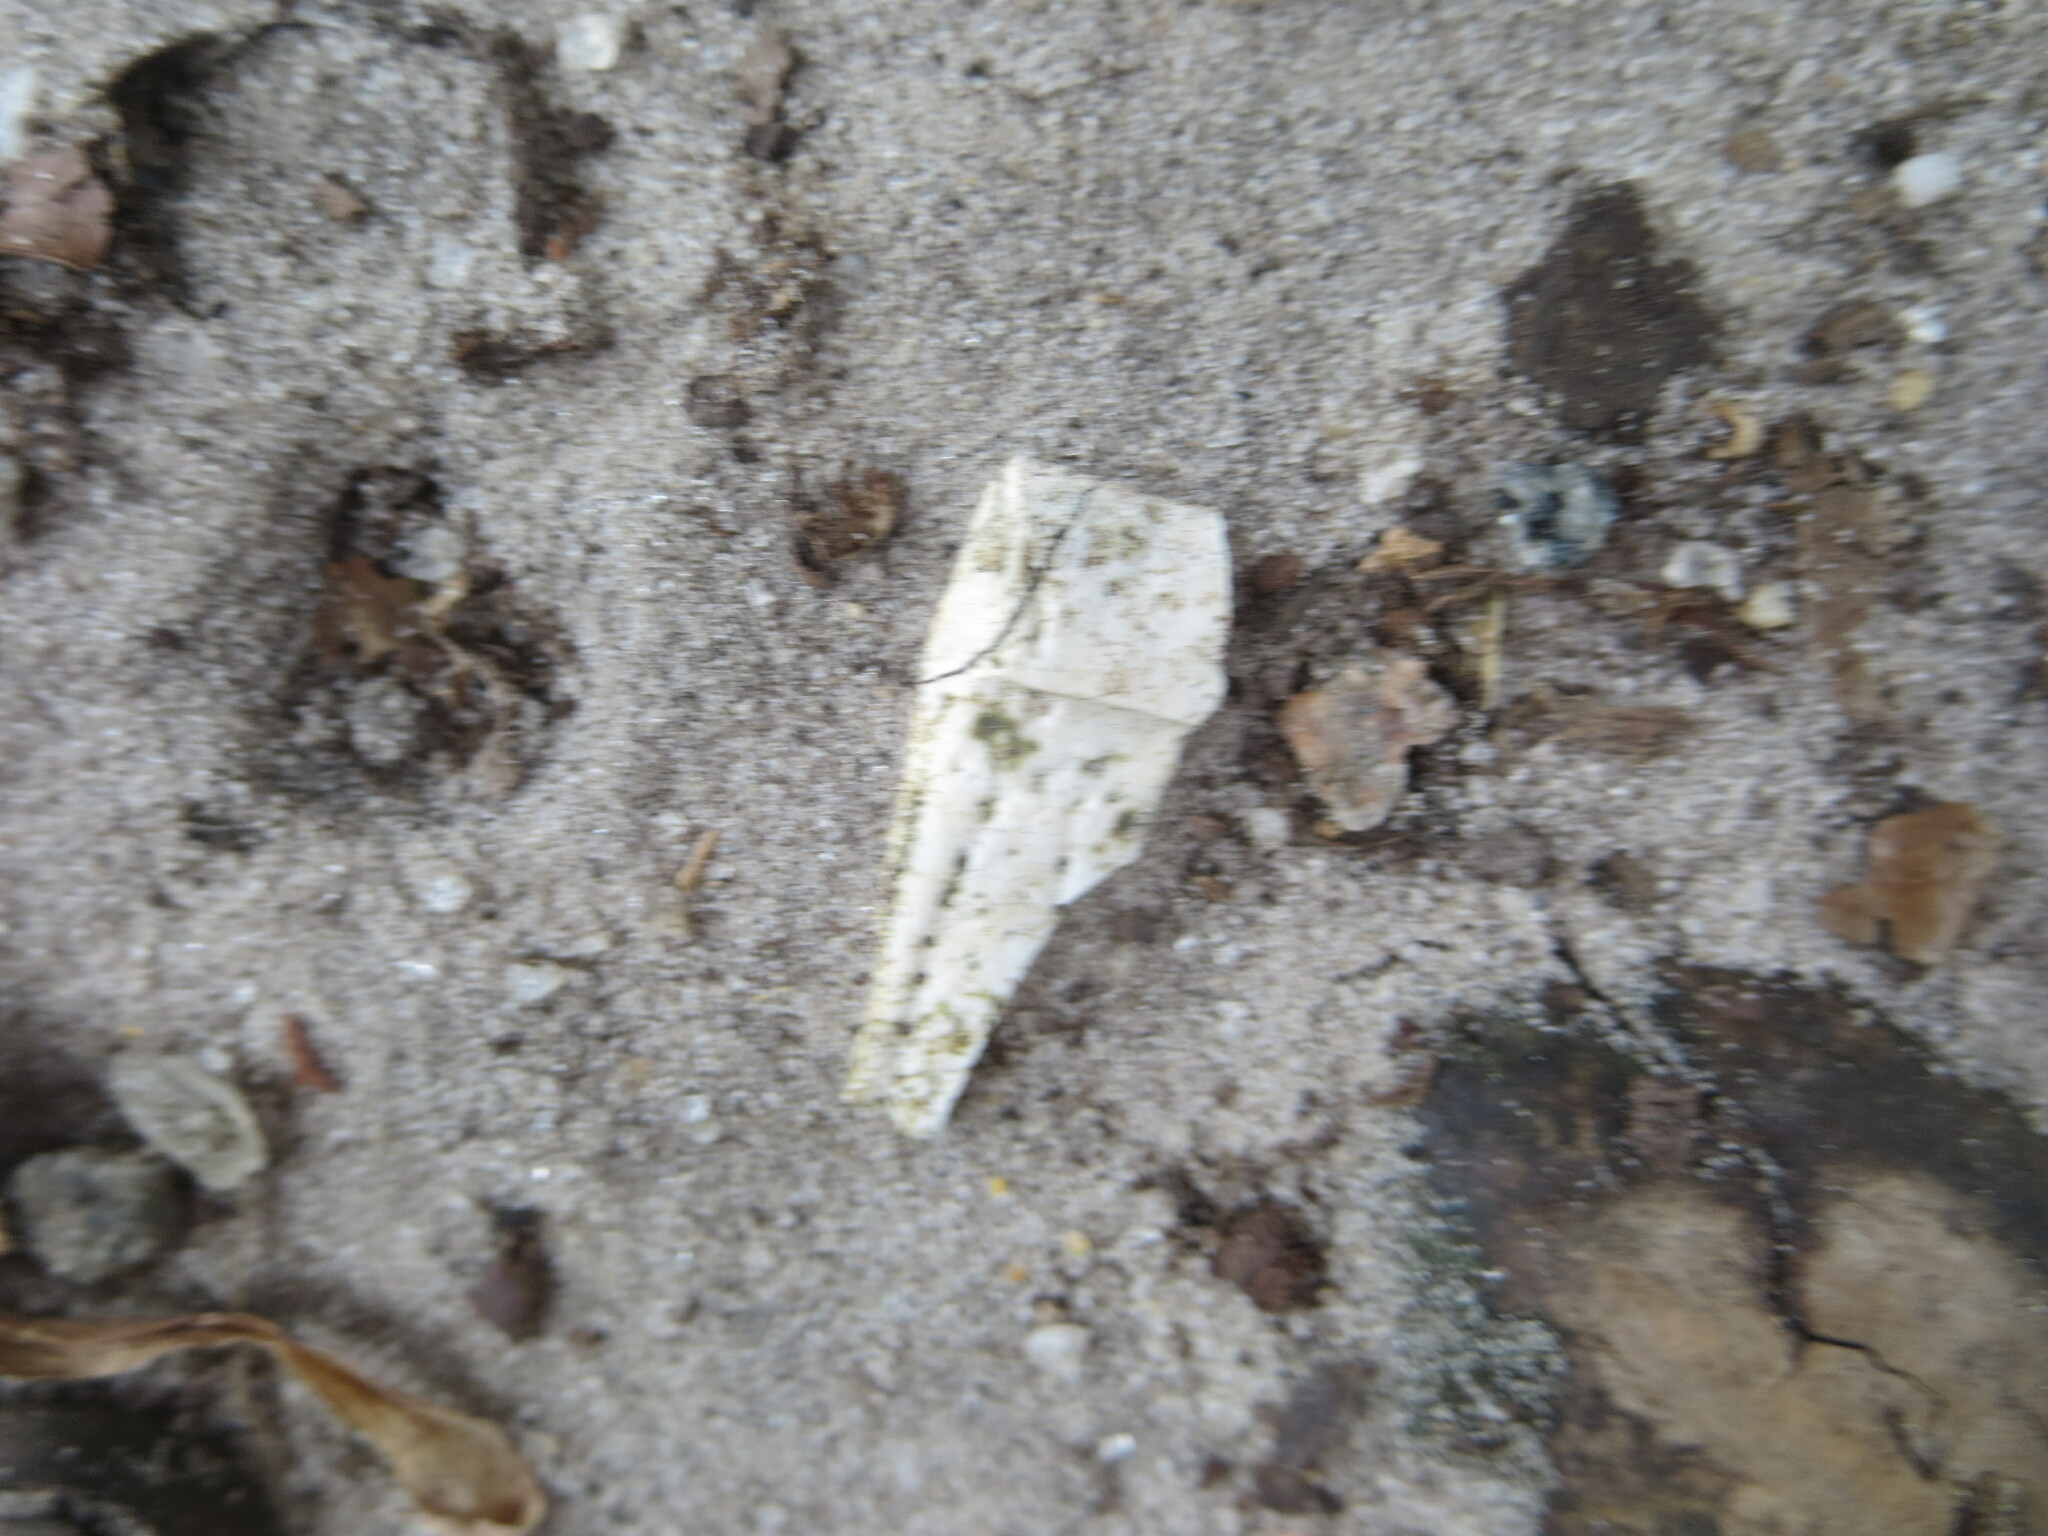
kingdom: Animalia
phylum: Chordata
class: Mammalia
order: Cingulata
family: Dasypodidae
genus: Dasypus
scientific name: Dasypus novemcinctus
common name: Nine-banded armadillo
